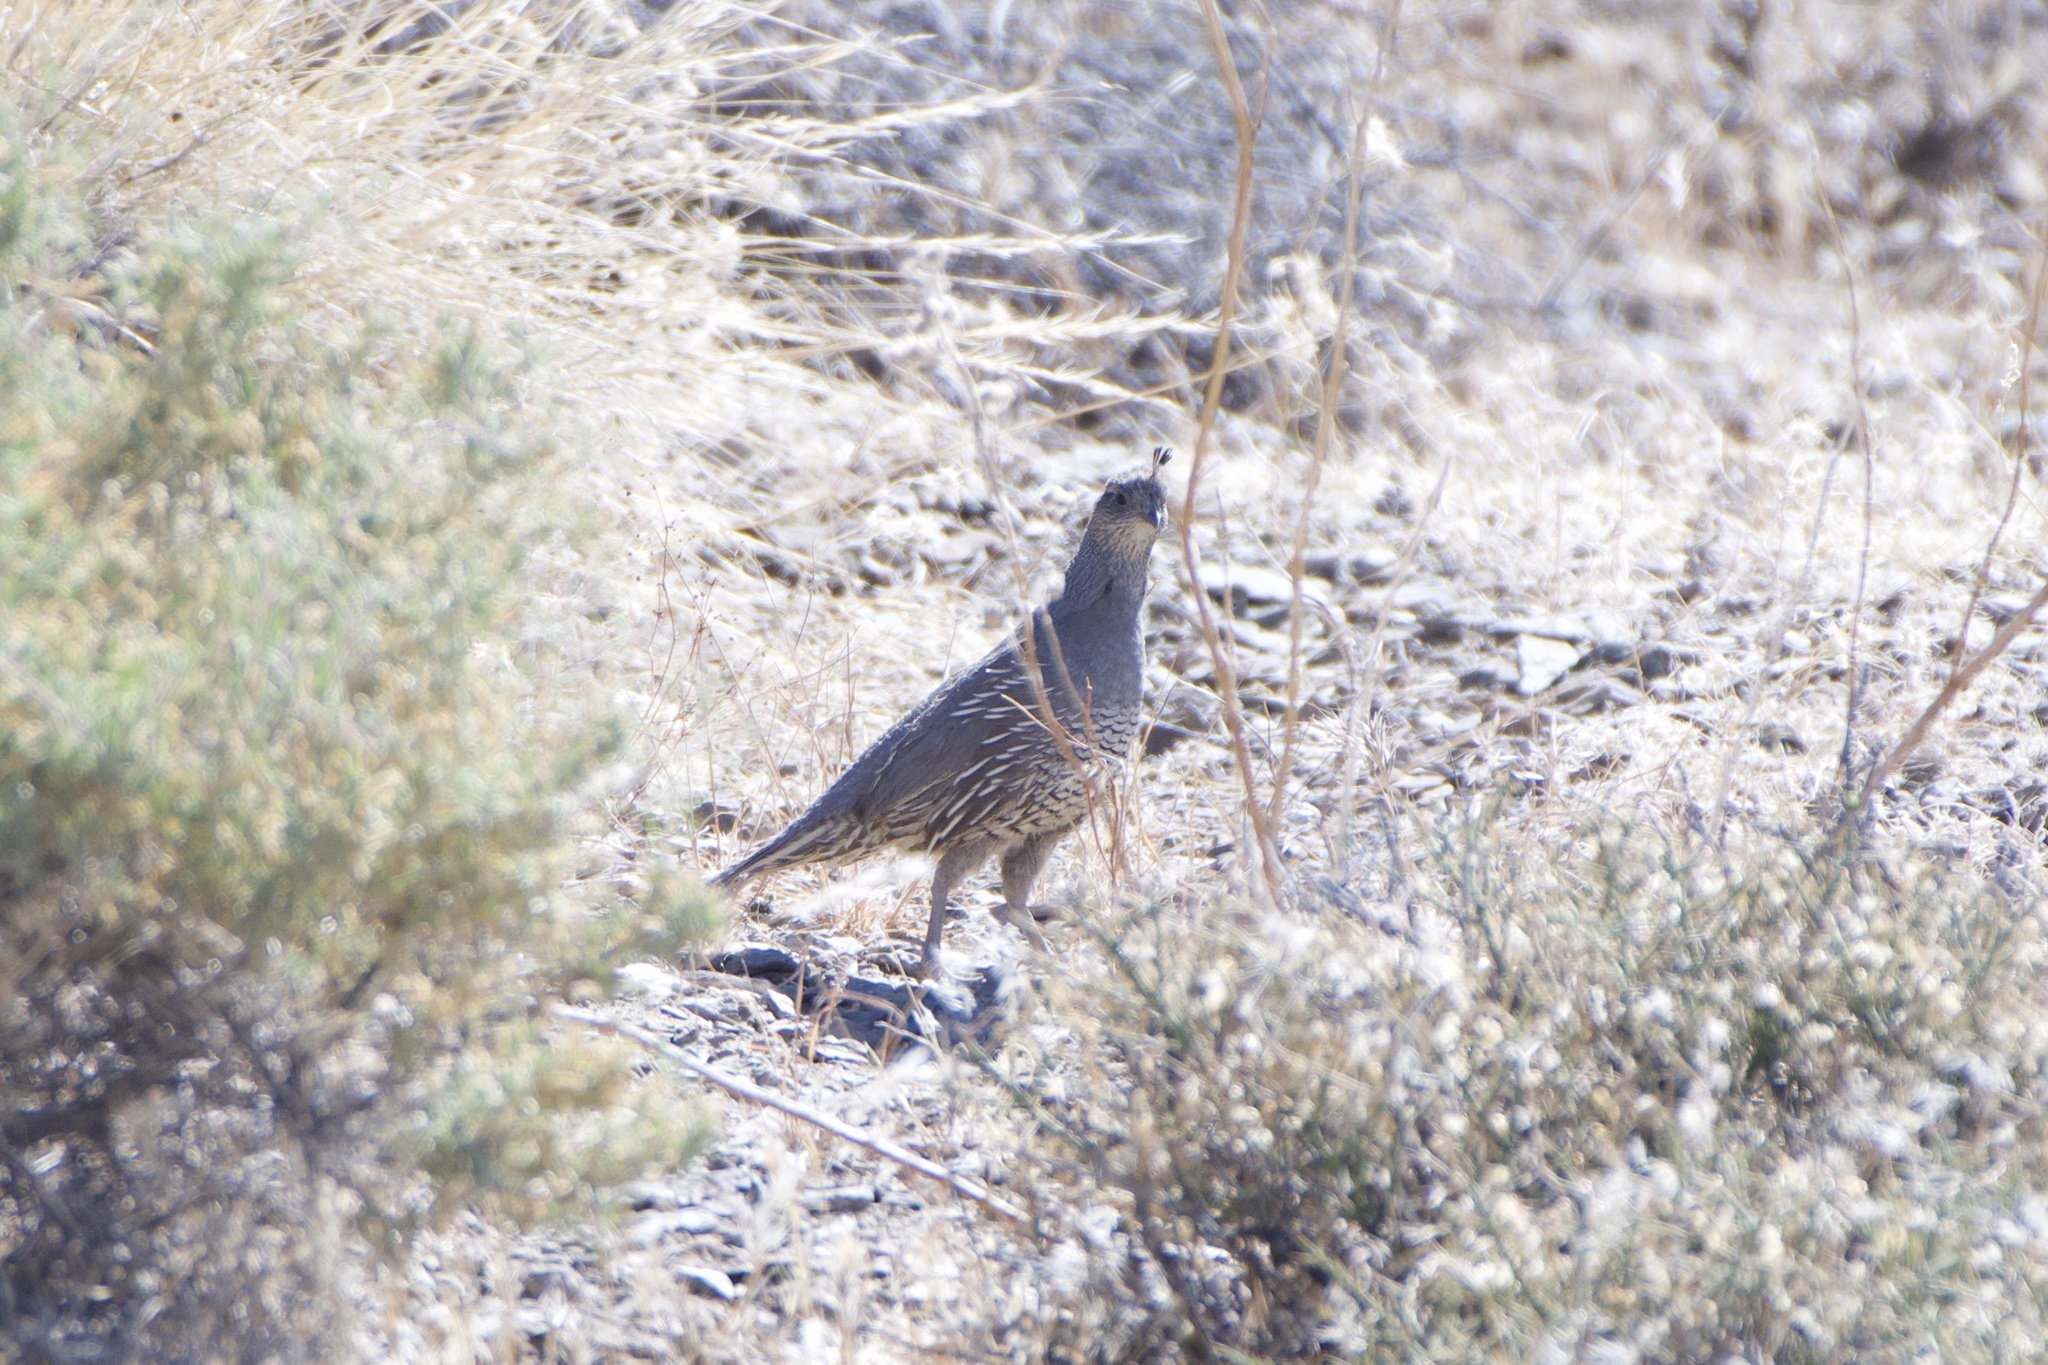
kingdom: Animalia
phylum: Chordata
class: Aves
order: Galliformes
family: Odontophoridae
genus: Callipepla
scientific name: Callipepla californica
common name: California quail
